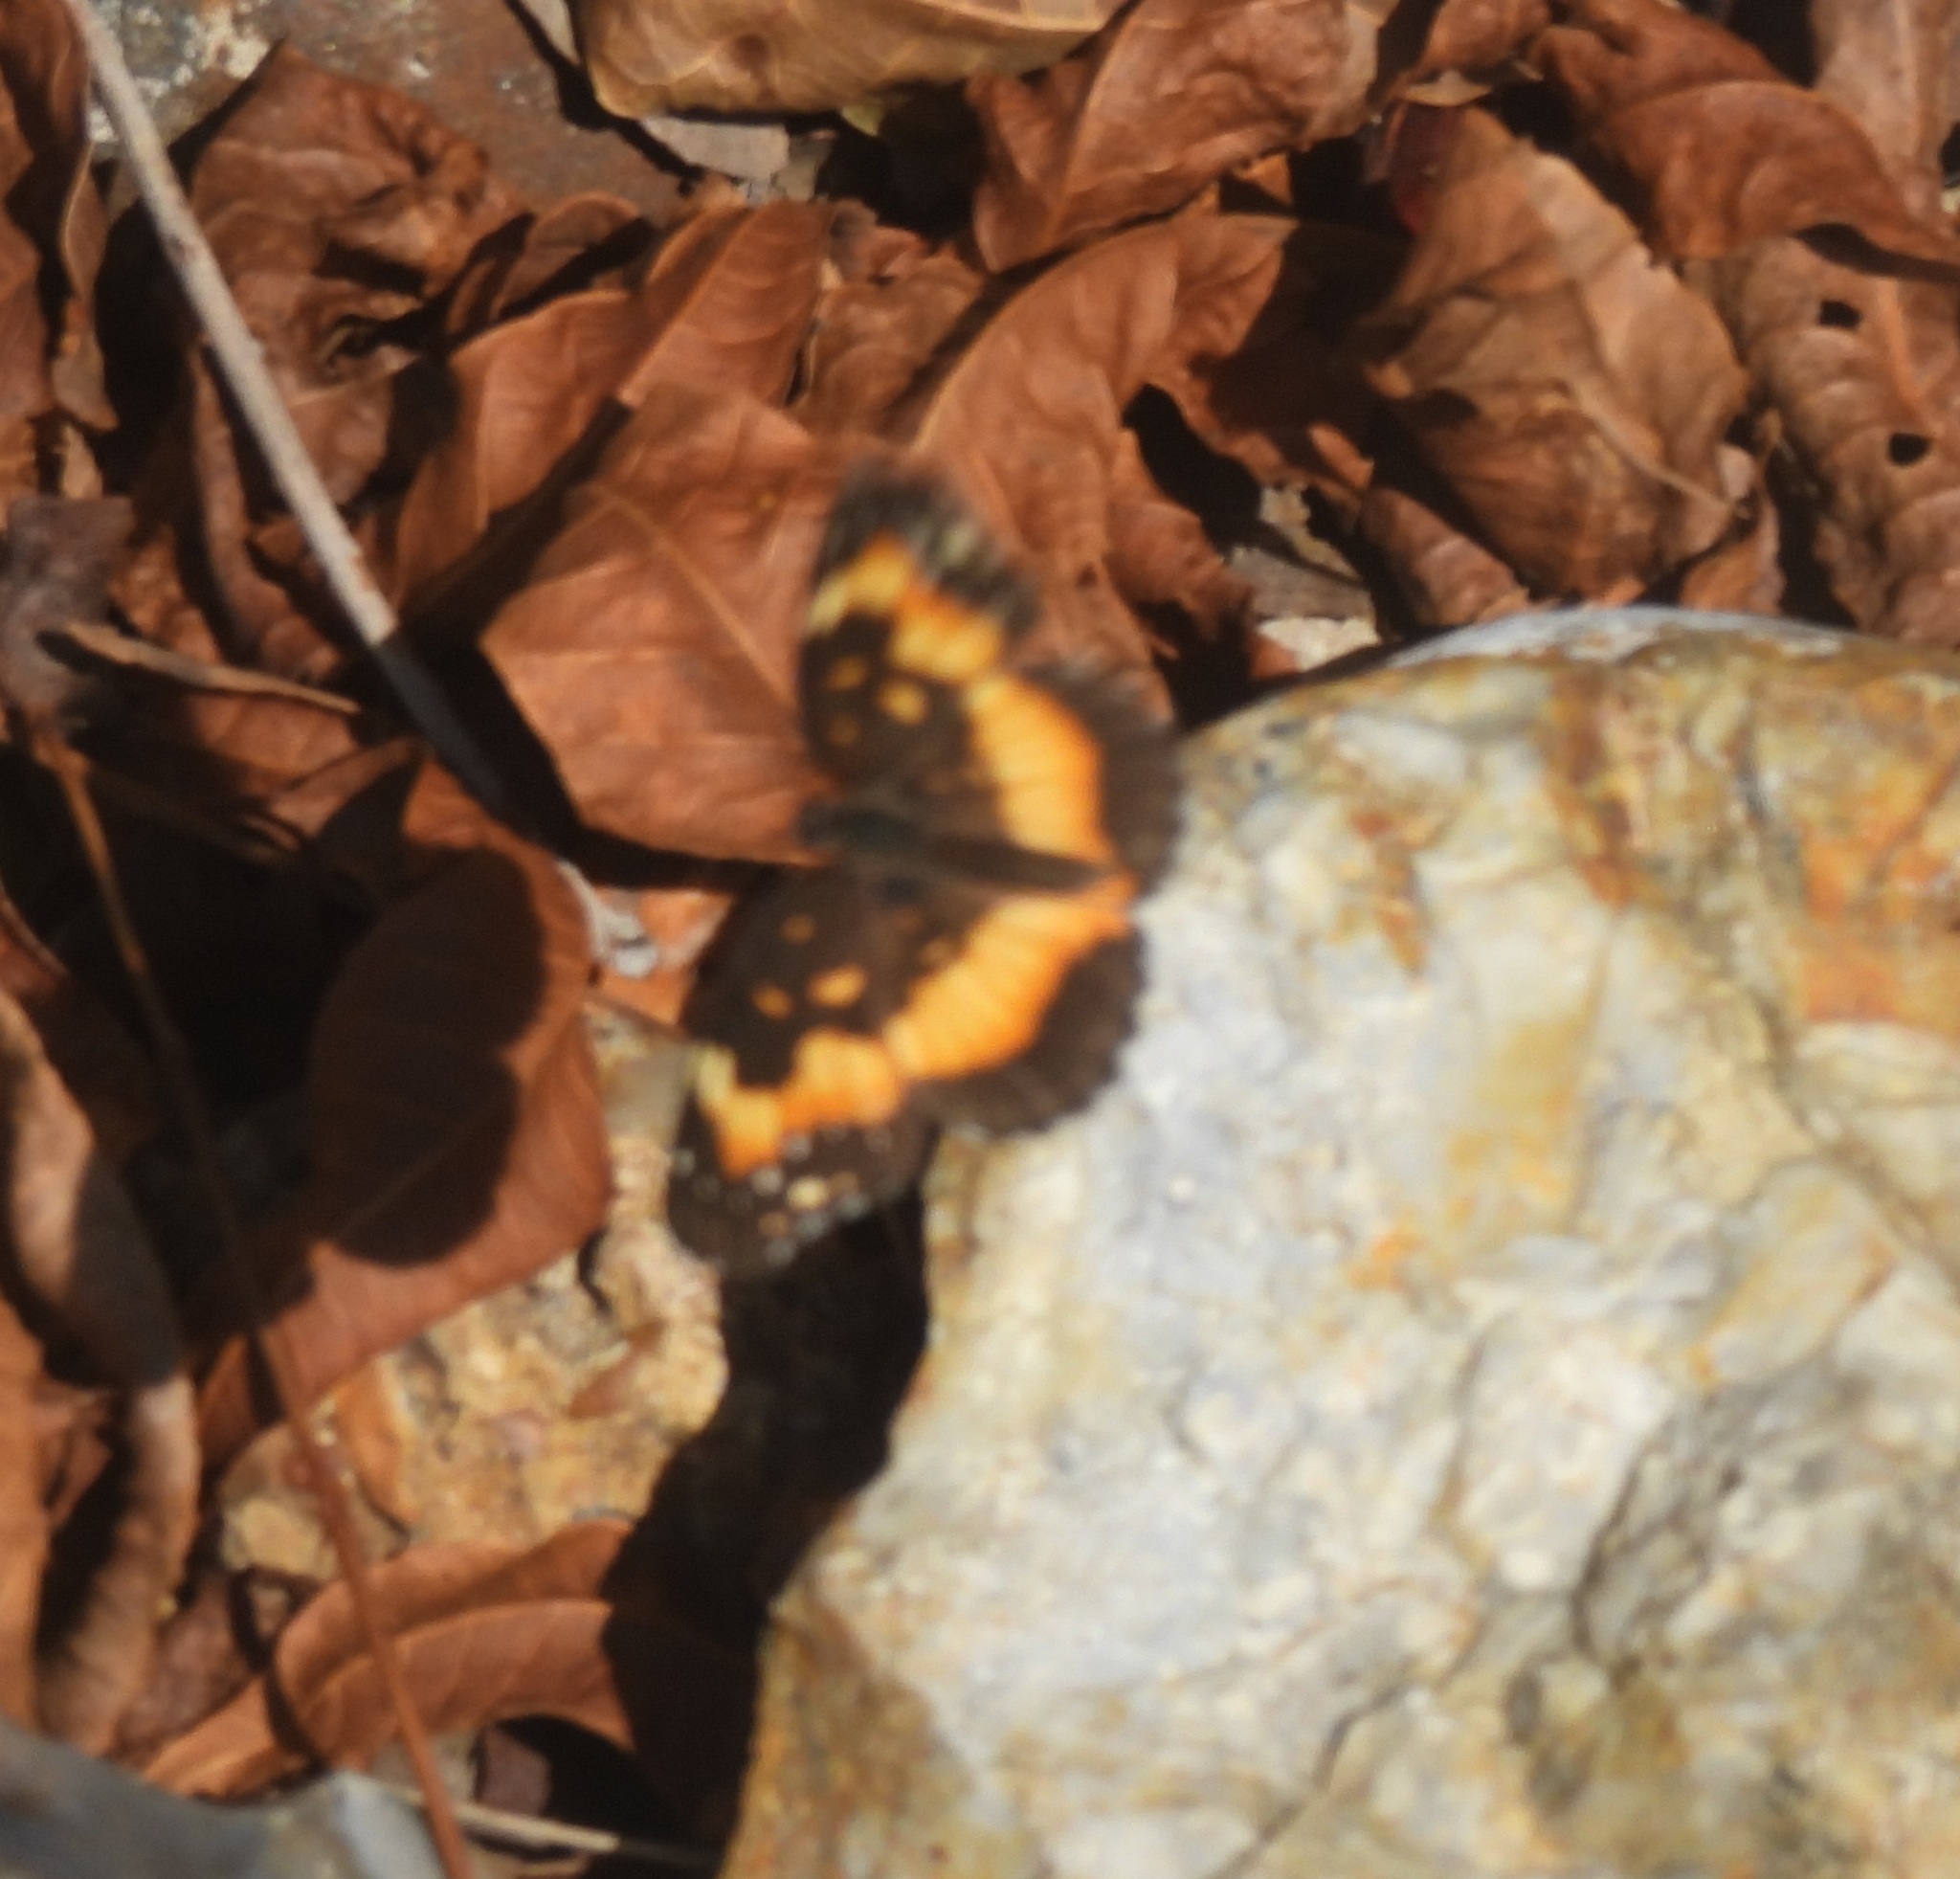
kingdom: Animalia
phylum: Arthropoda
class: Insecta
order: Lepidoptera
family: Nymphalidae
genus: Chlosyne
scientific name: Chlosyne lacinia
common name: Bordered patch
